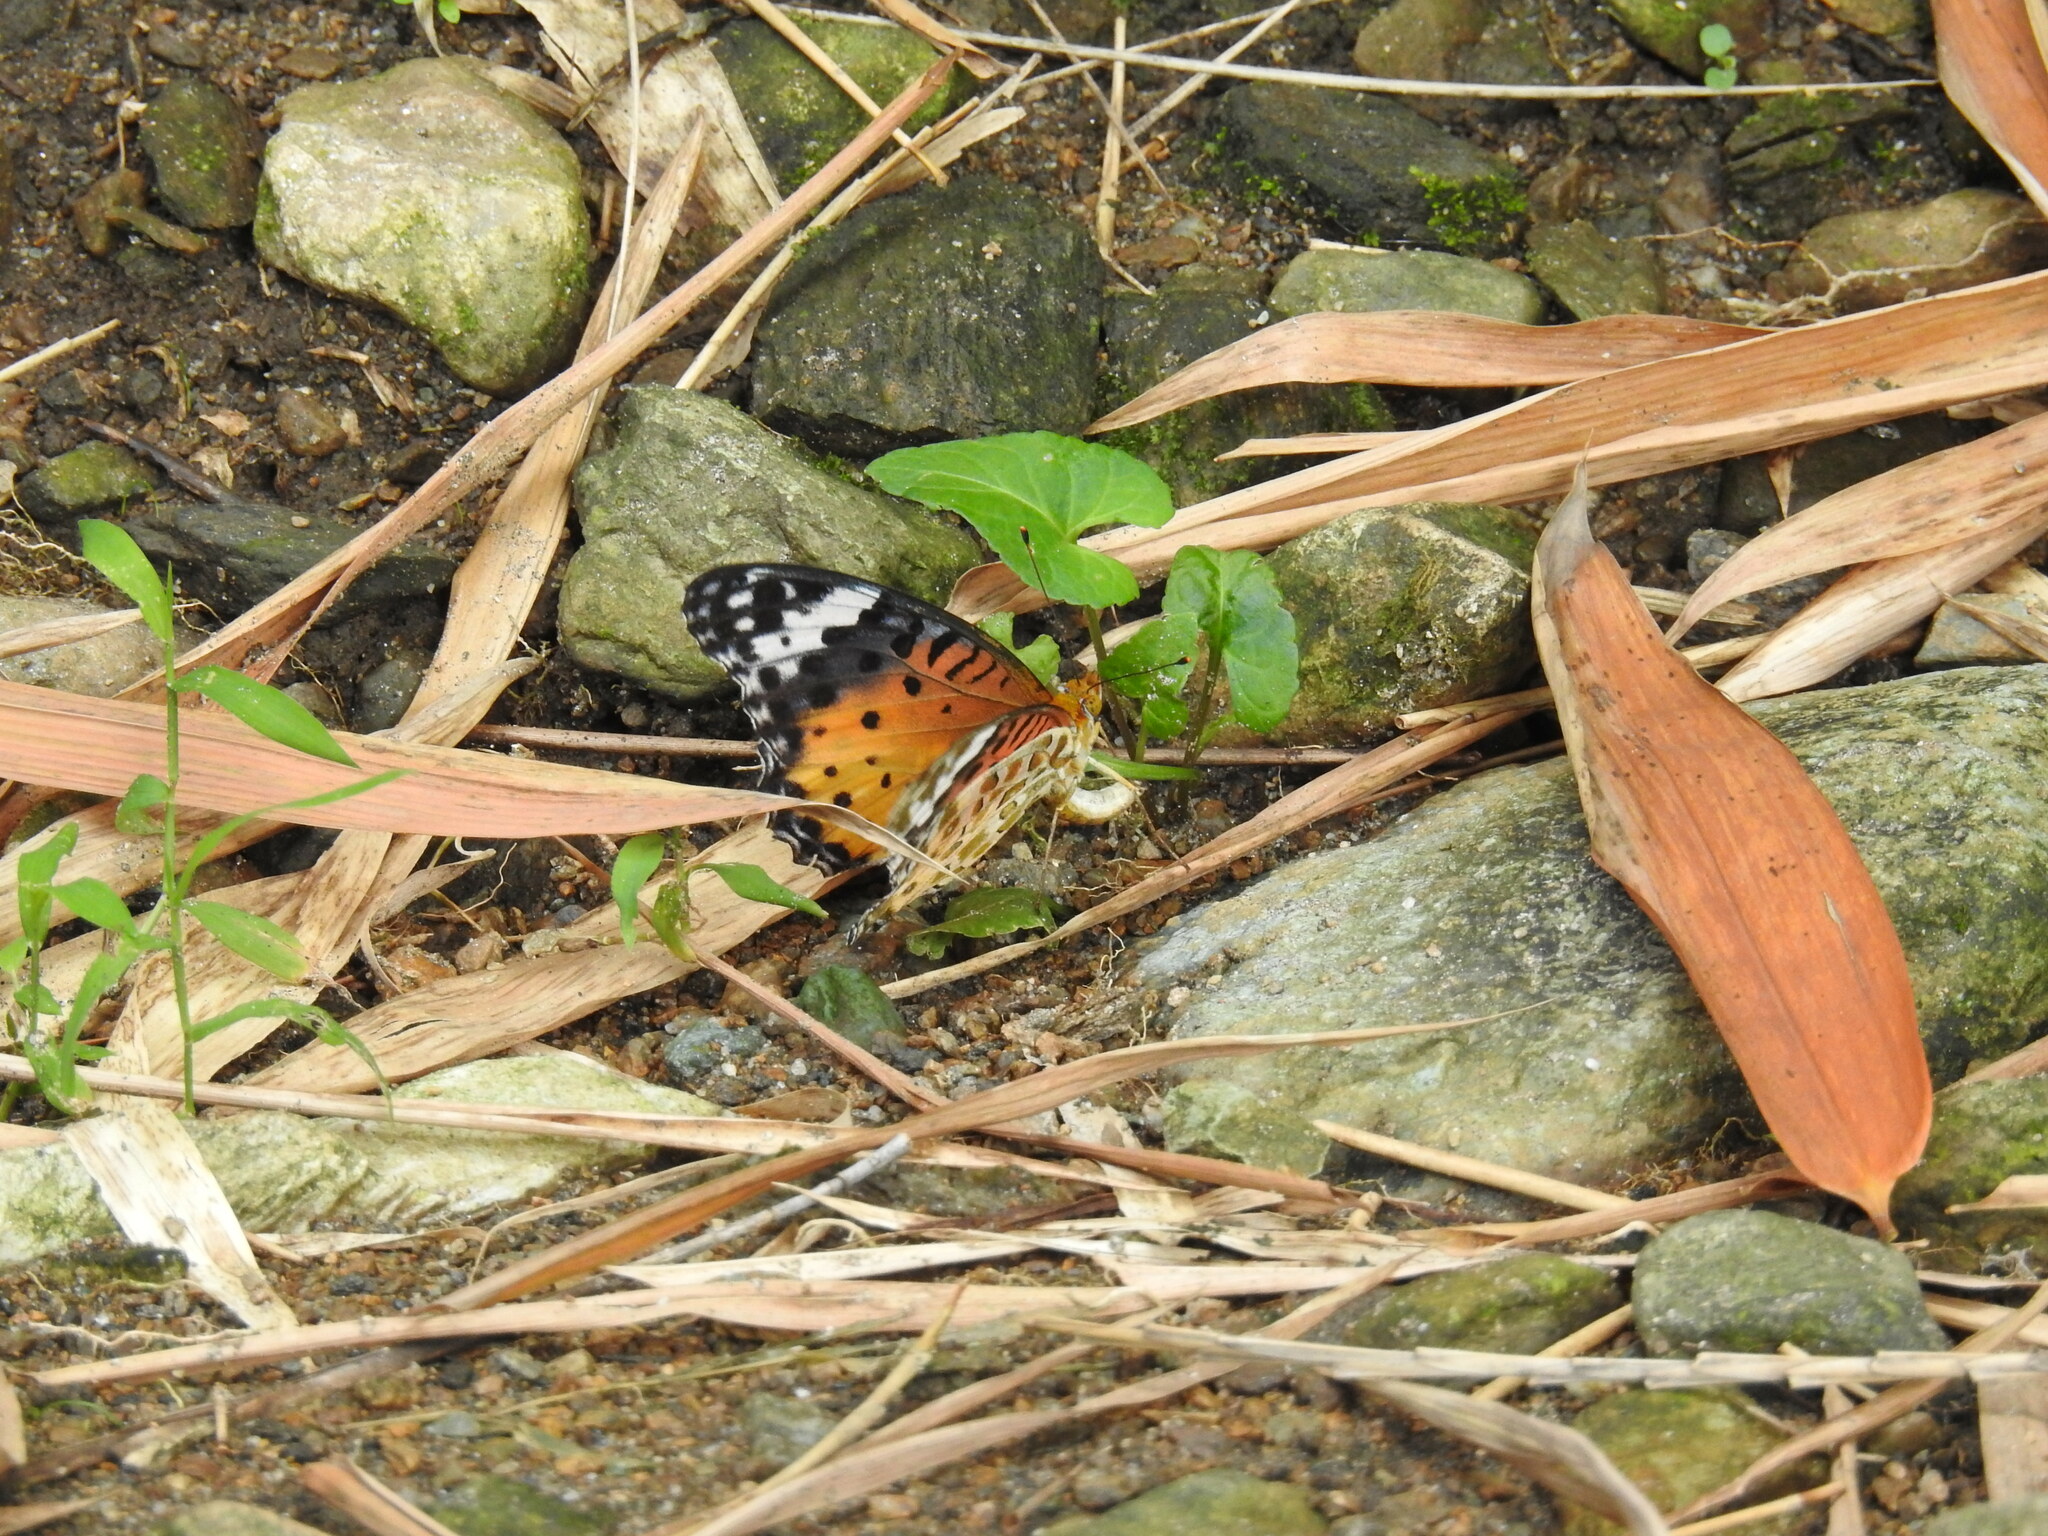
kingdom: Animalia
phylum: Arthropoda
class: Insecta
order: Lepidoptera
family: Nymphalidae
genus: Argynnis
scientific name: Argynnis hyperbius
